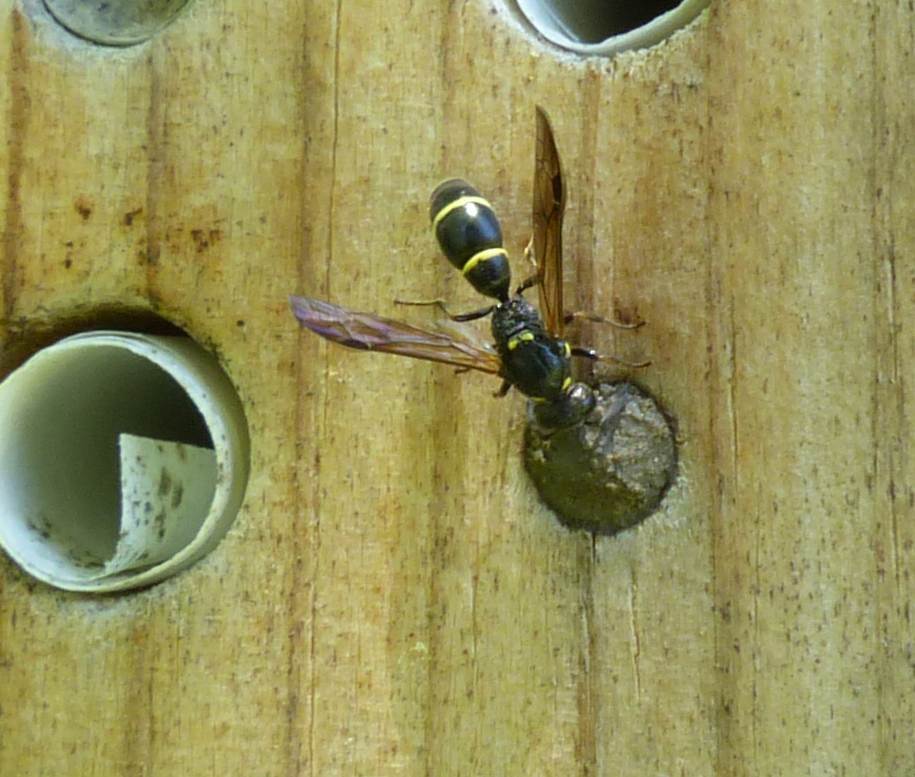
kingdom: Animalia
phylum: Arthropoda
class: Insecta
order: Hymenoptera
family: Eumenidae
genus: Symmorphus
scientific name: Symmorphus
